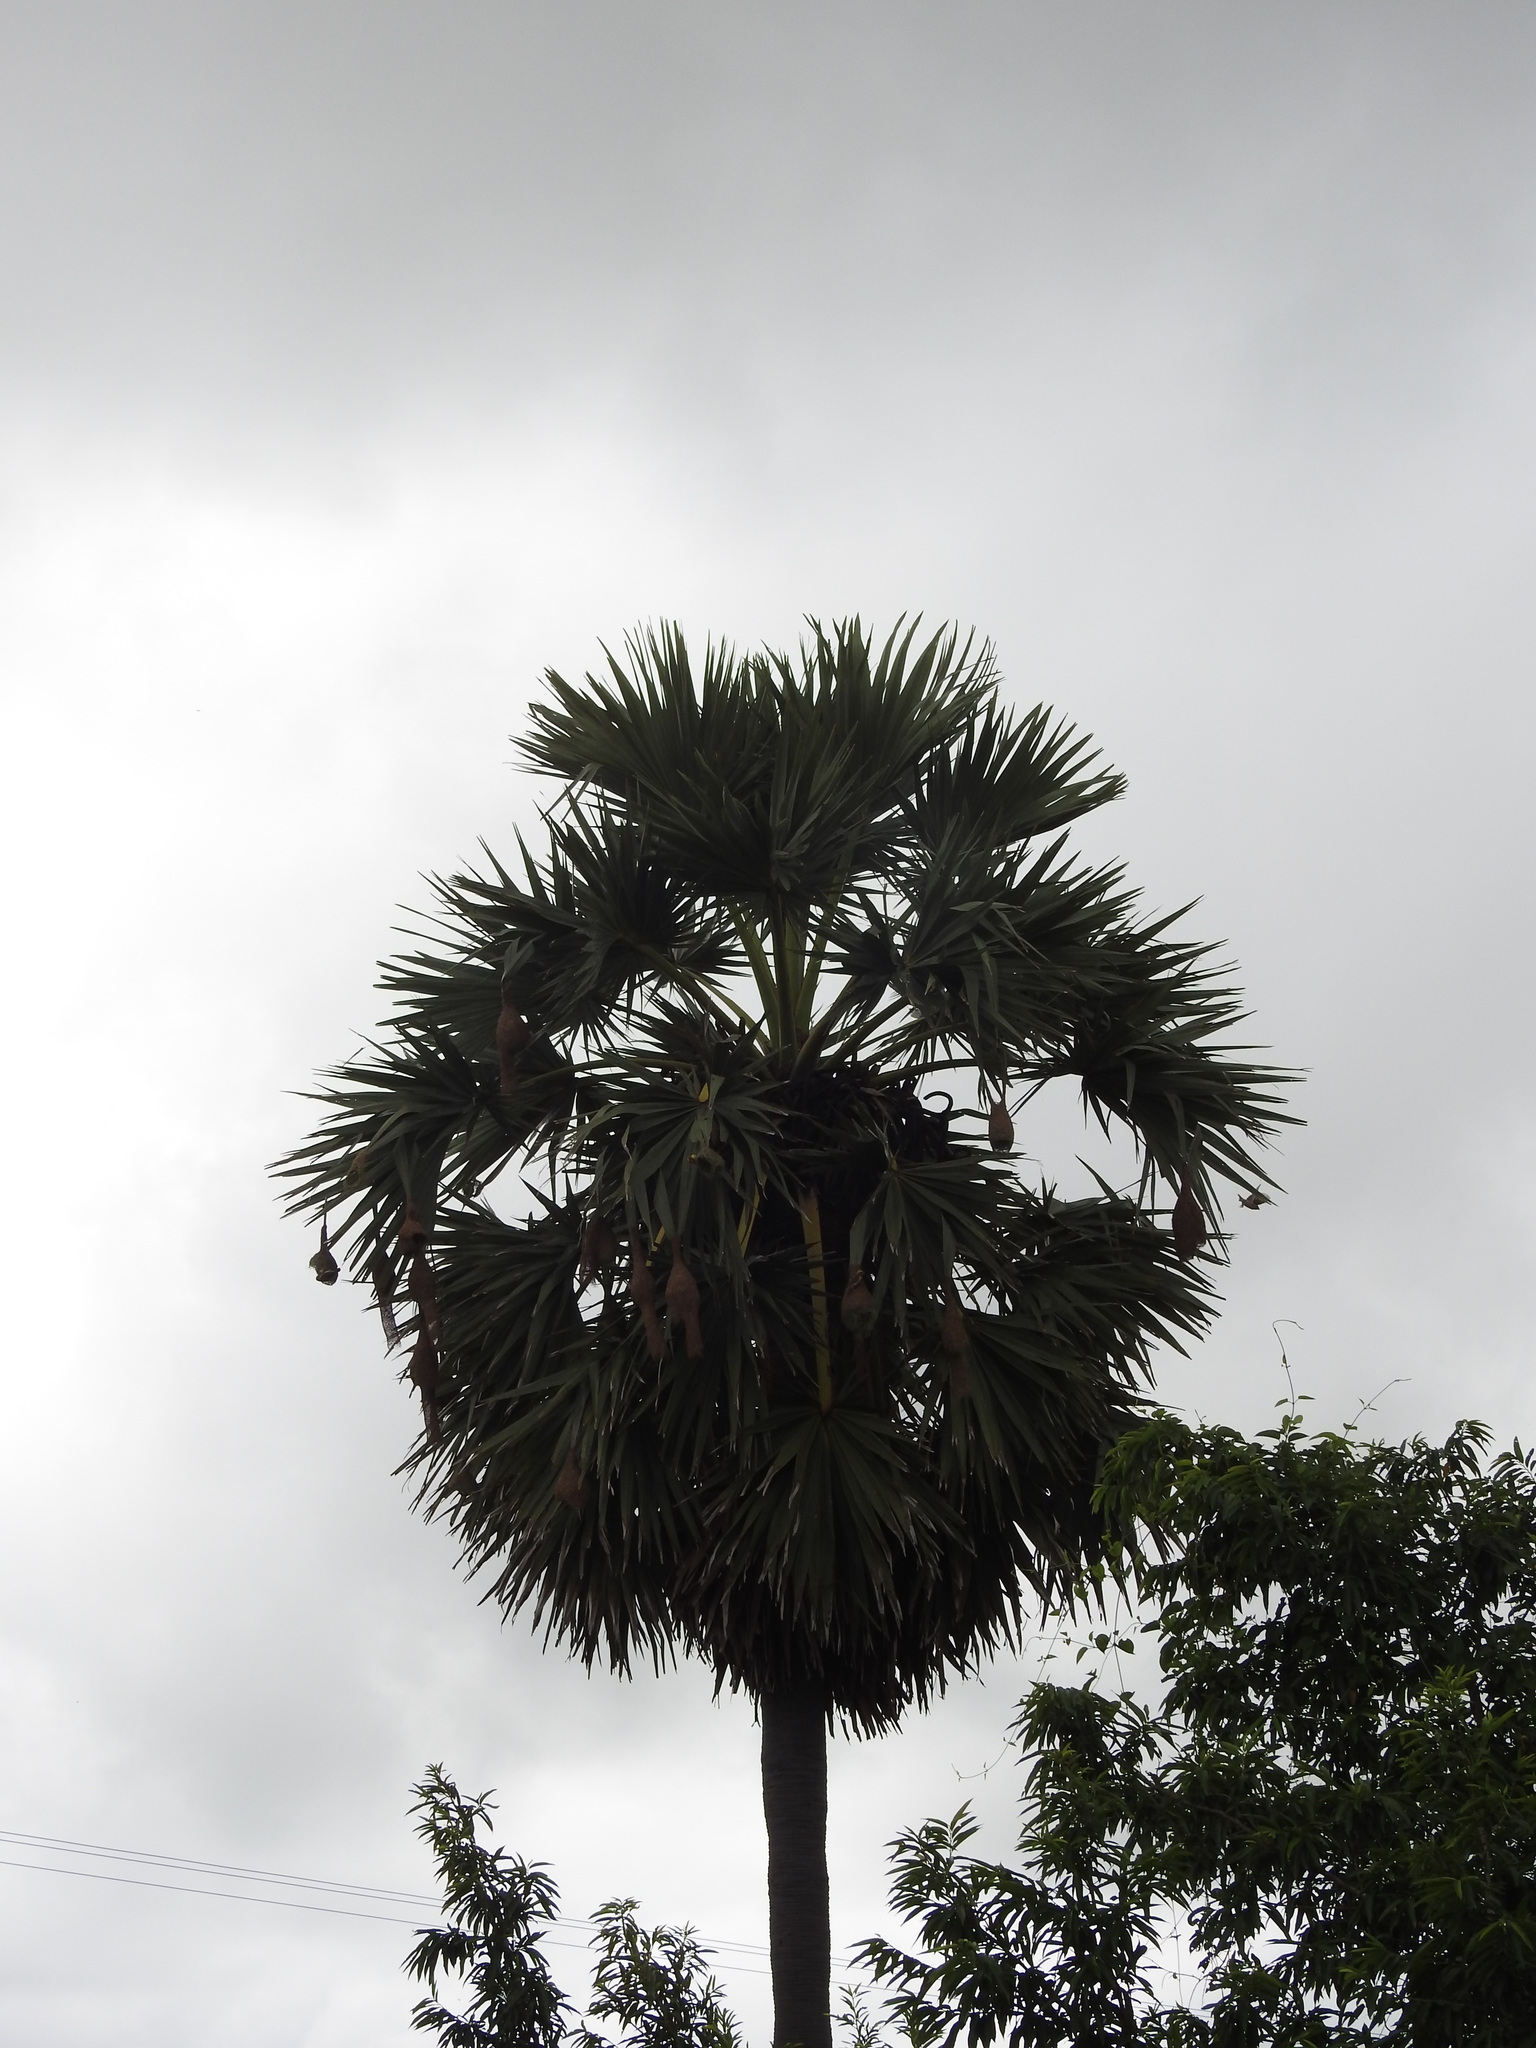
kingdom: Animalia
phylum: Chordata
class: Aves
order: Passeriformes
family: Ploceidae
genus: Ploceus
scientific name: Ploceus philippinus
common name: Baya weaver
